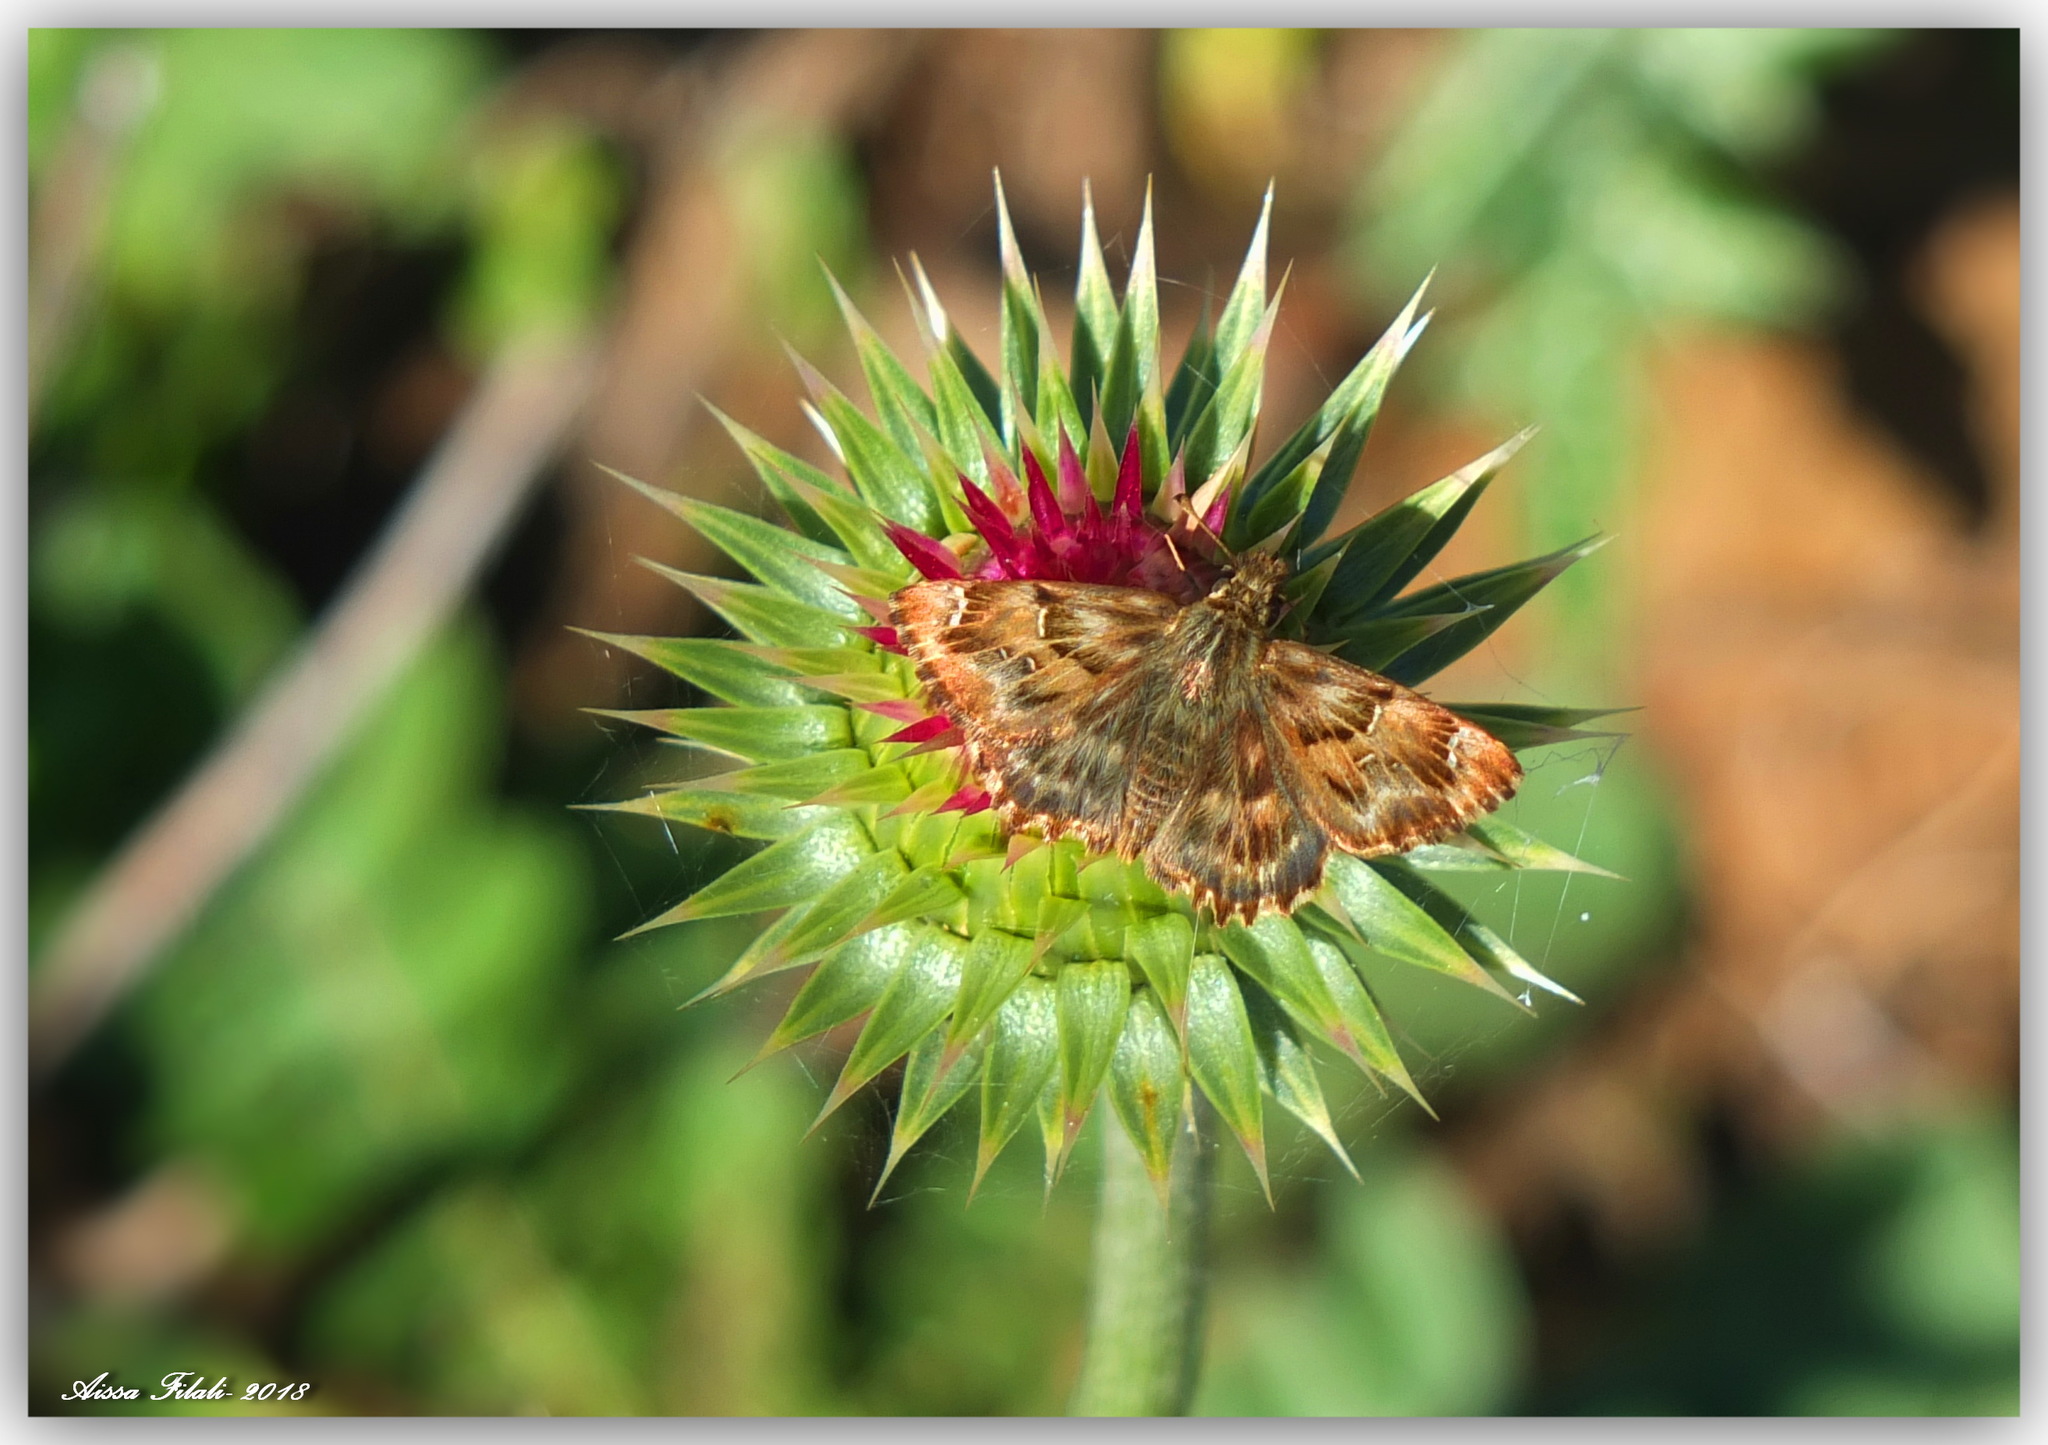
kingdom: Animalia
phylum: Arthropoda
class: Insecta
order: Lepidoptera
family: Hesperiidae
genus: Carcharodus
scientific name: Carcharodus alceae
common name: Mallow skipper
